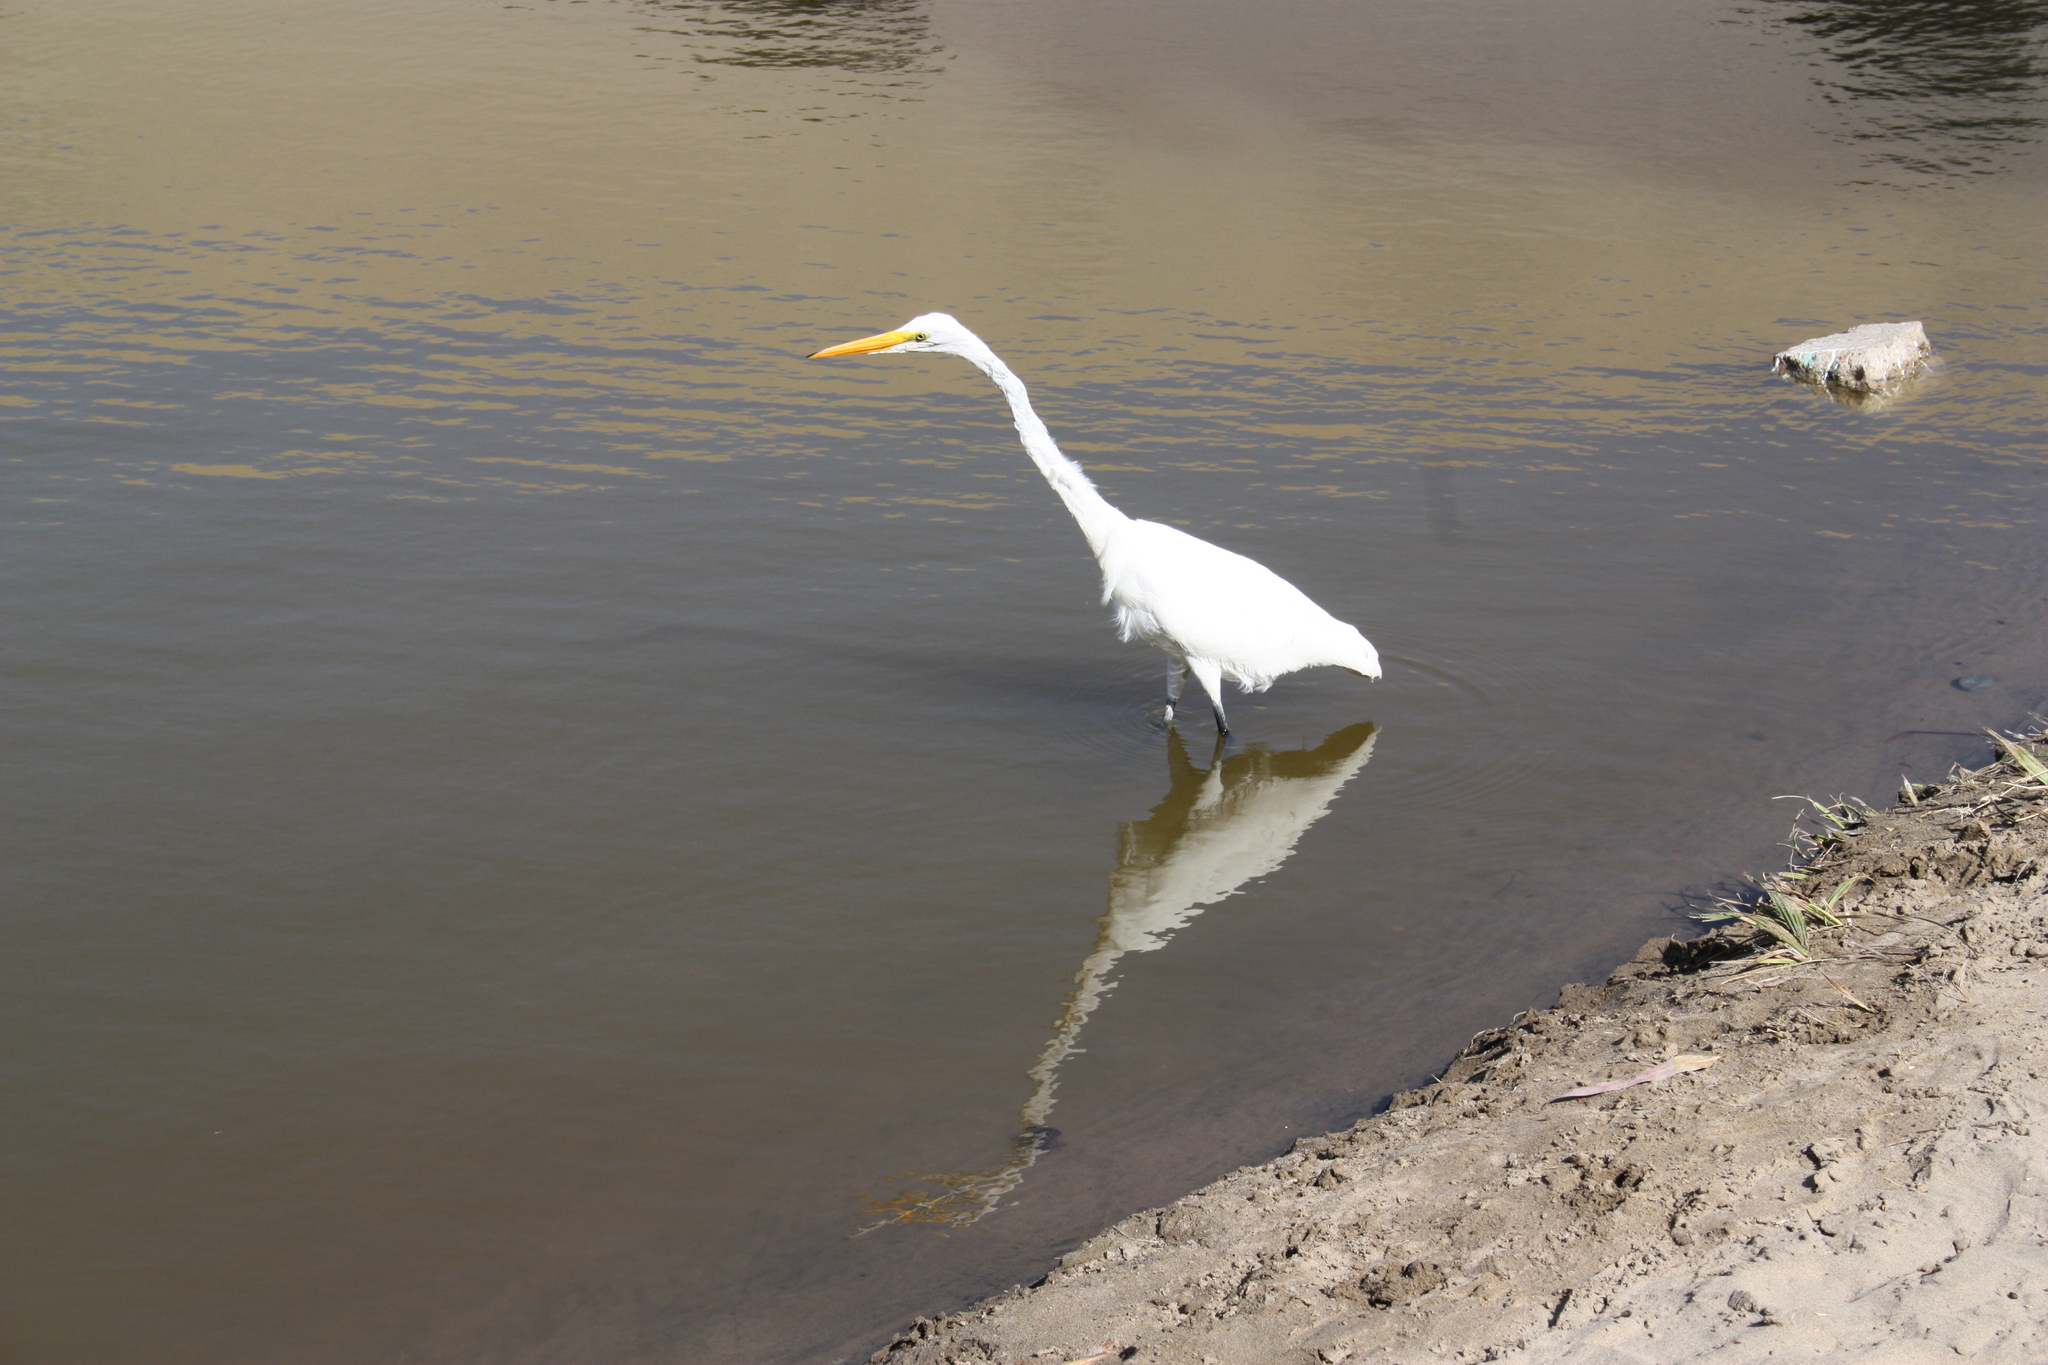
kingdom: Animalia
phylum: Chordata
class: Aves
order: Pelecaniformes
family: Ardeidae
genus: Ardea
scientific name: Ardea alba
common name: Great egret
